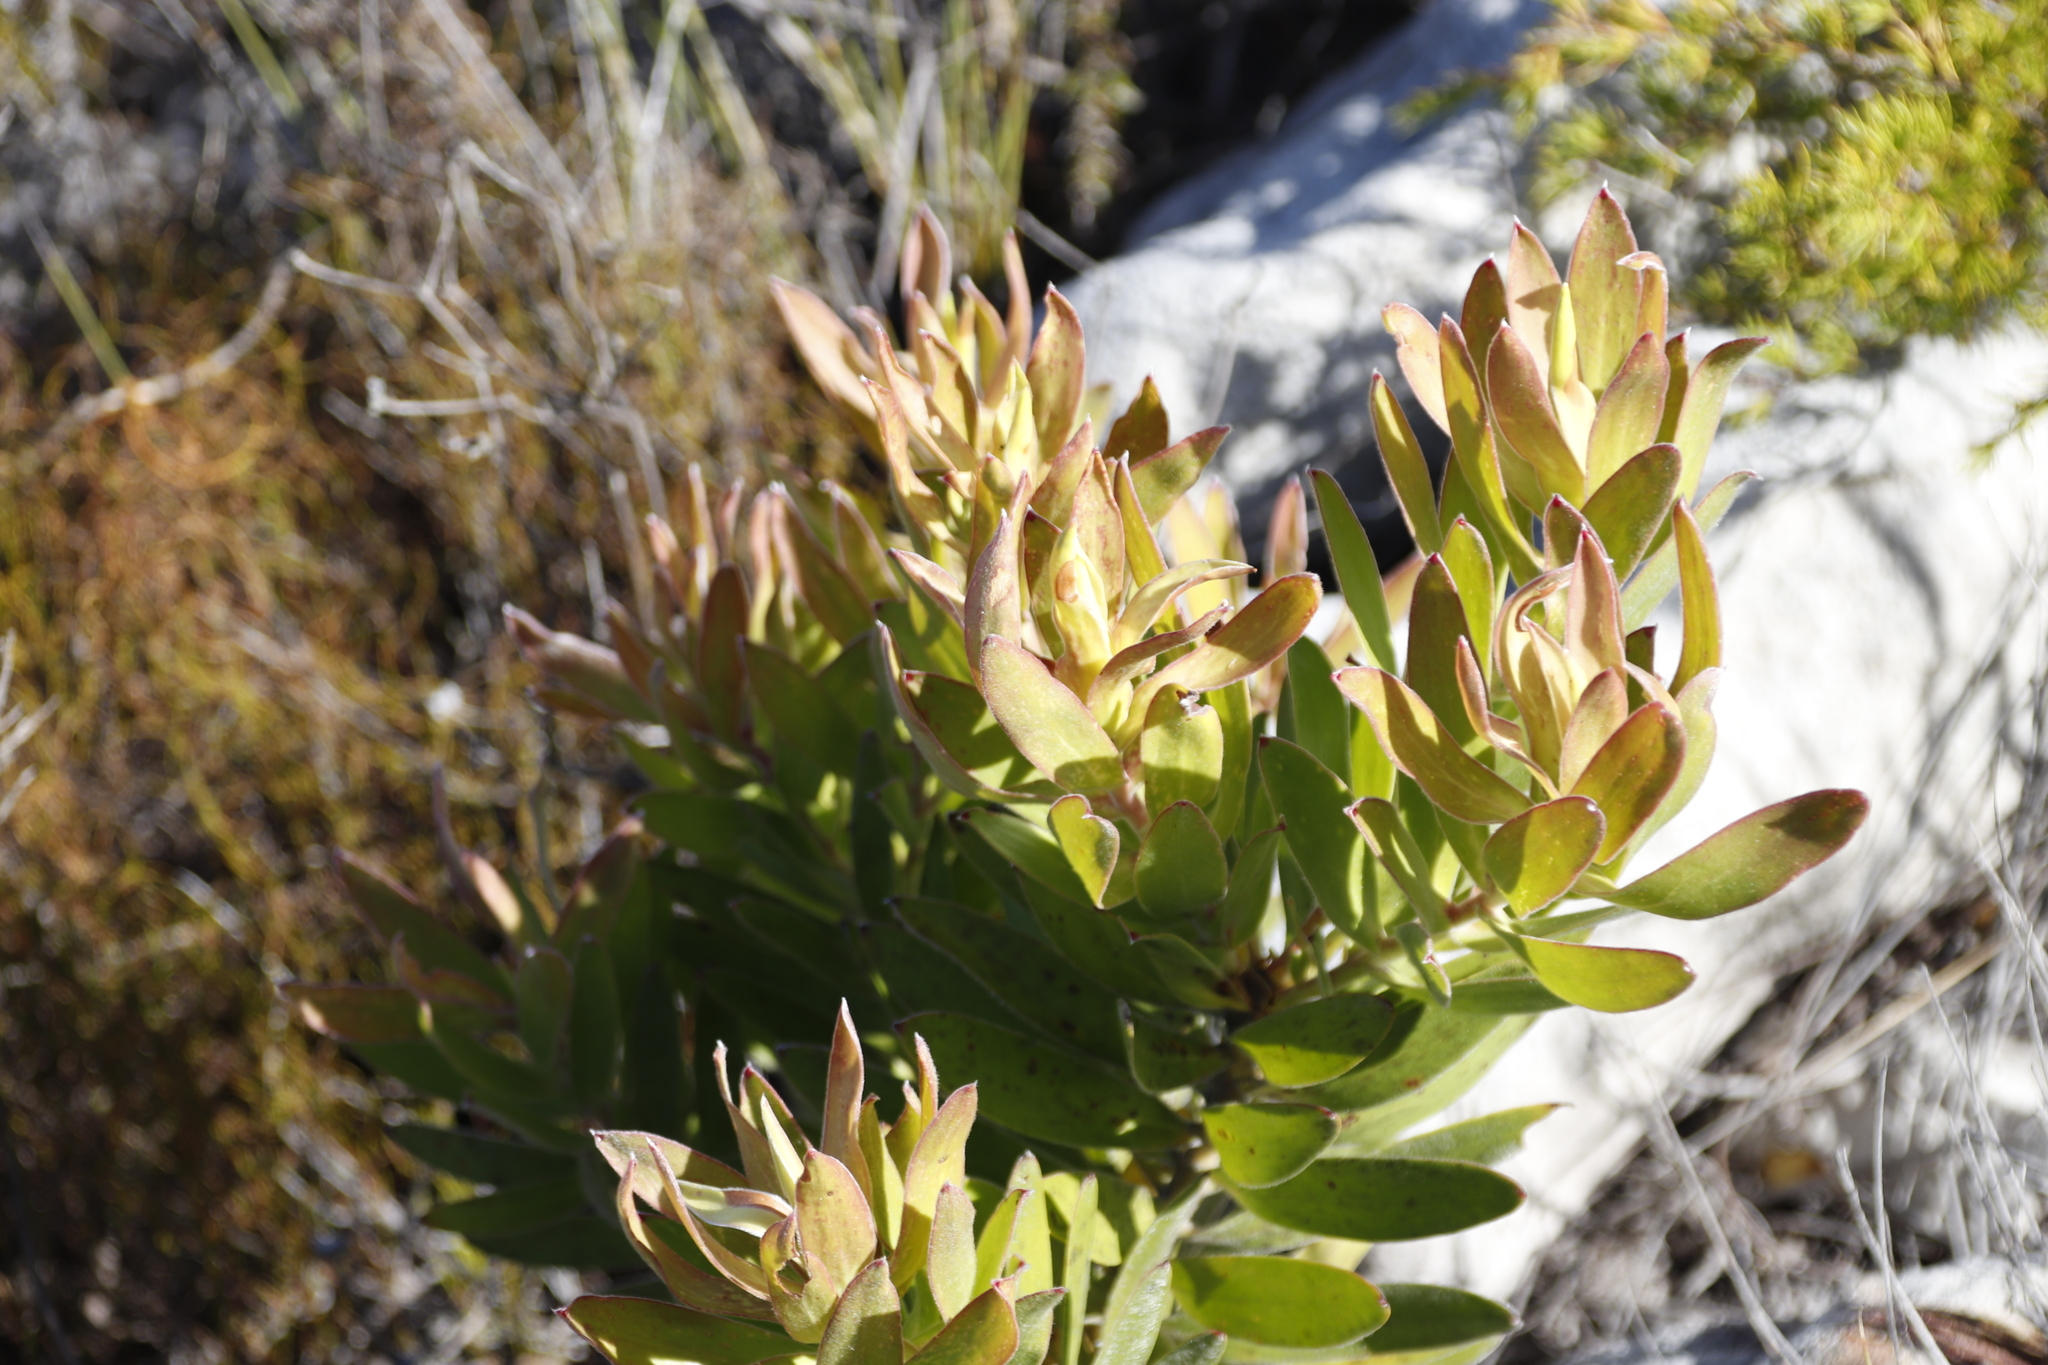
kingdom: Plantae
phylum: Tracheophyta
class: Magnoliopsida
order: Proteales
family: Proteaceae
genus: Leucadendron
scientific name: Leucadendron laureolum
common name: Golden sunshinebush
